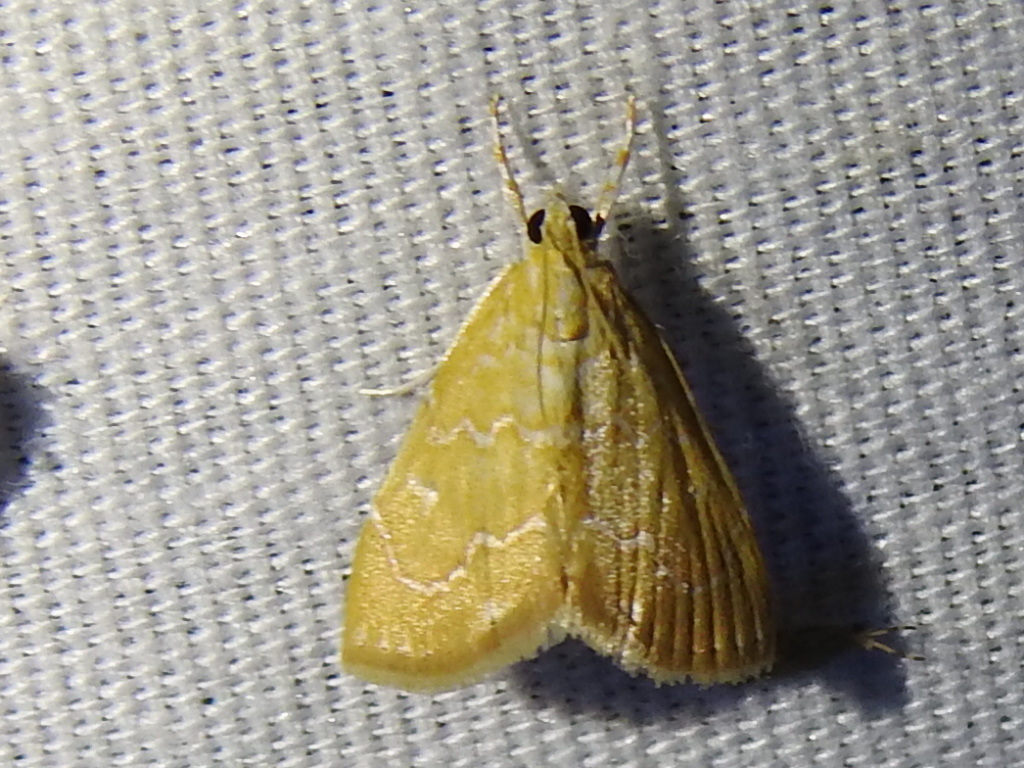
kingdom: Animalia
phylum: Arthropoda
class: Insecta
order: Lepidoptera
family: Crambidae
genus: Glaphyria
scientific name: Glaphyria sesquistrialis
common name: White-roped glaphyria
